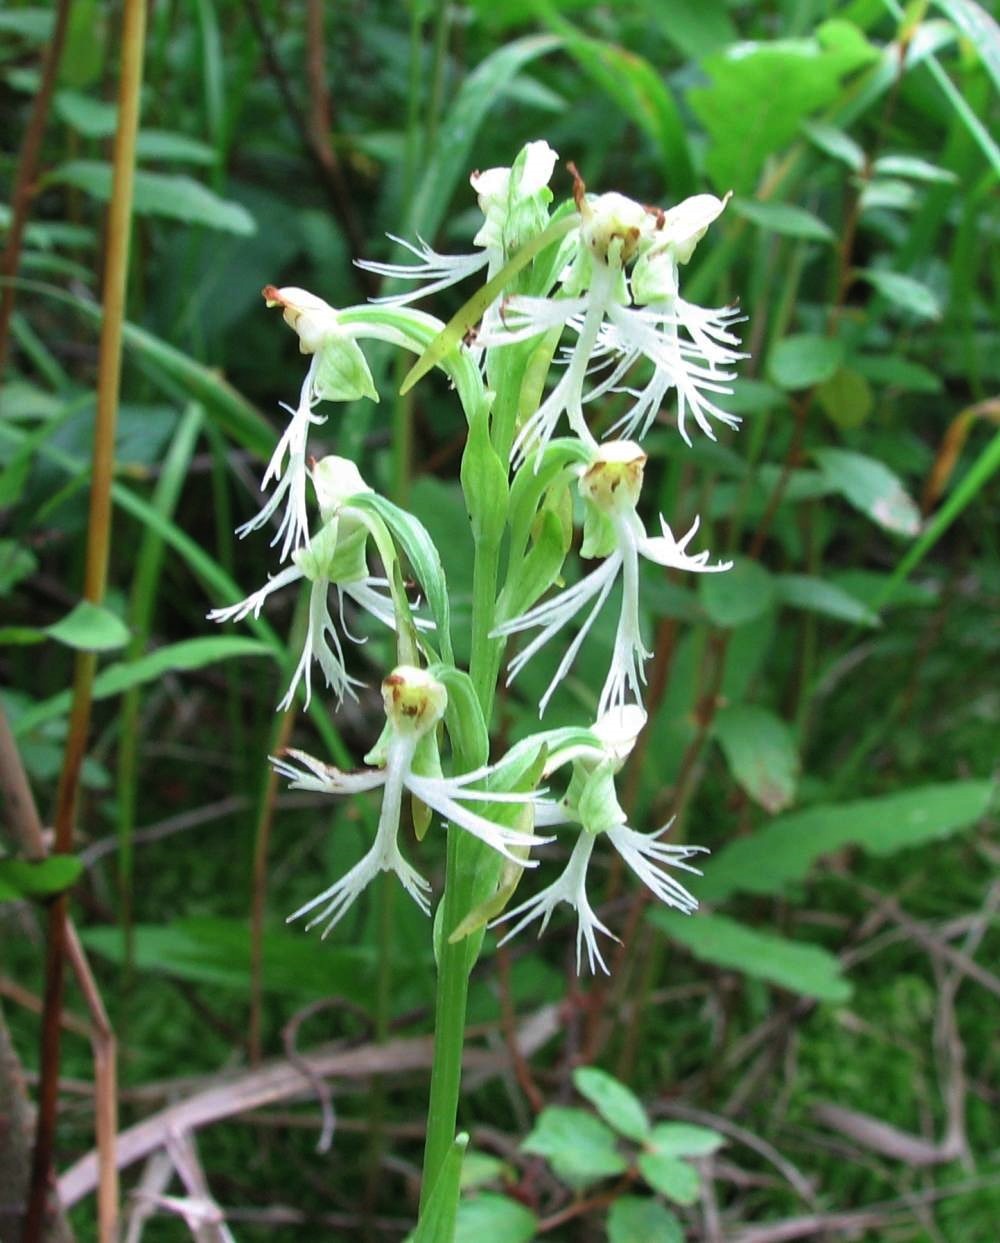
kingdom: Plantae
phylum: Tracheophyta
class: Liliopsida
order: Asparagales
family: Orchidaceae
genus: Platanthera
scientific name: Platanthera lacera
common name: Green fringed orchid
